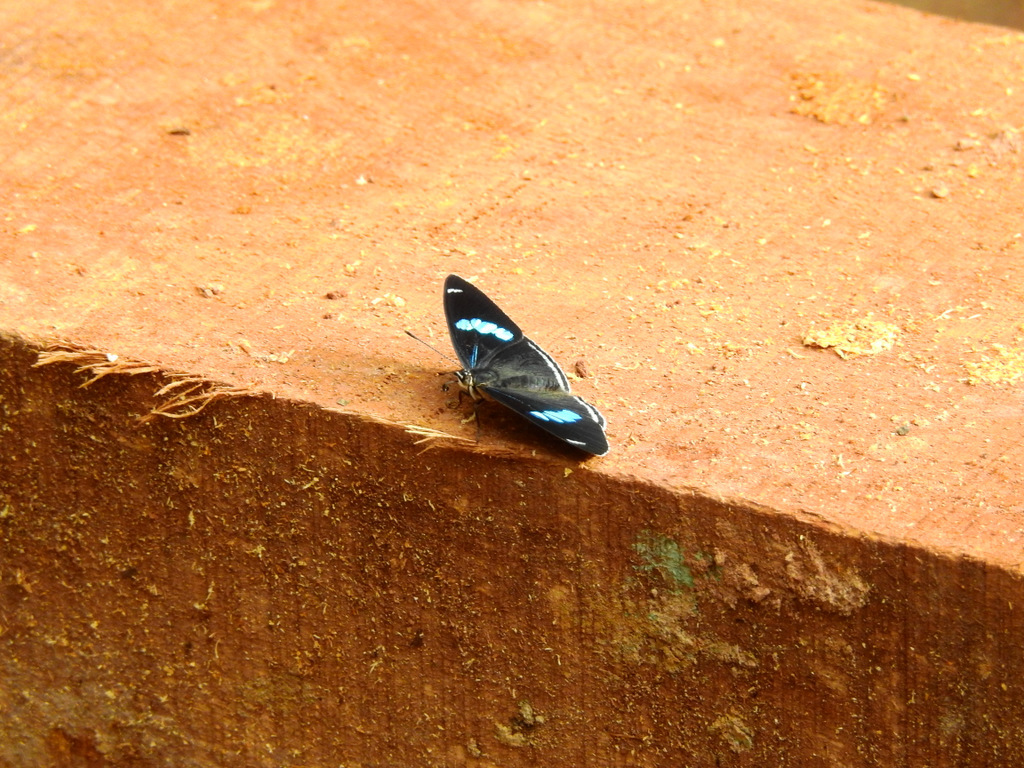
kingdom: Animalia
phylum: Arthropoda
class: Insecta
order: Lepidoptera
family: Nymphalidae
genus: Diaethria
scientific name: Diaethria clymena
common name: Widespread eighty-eight
